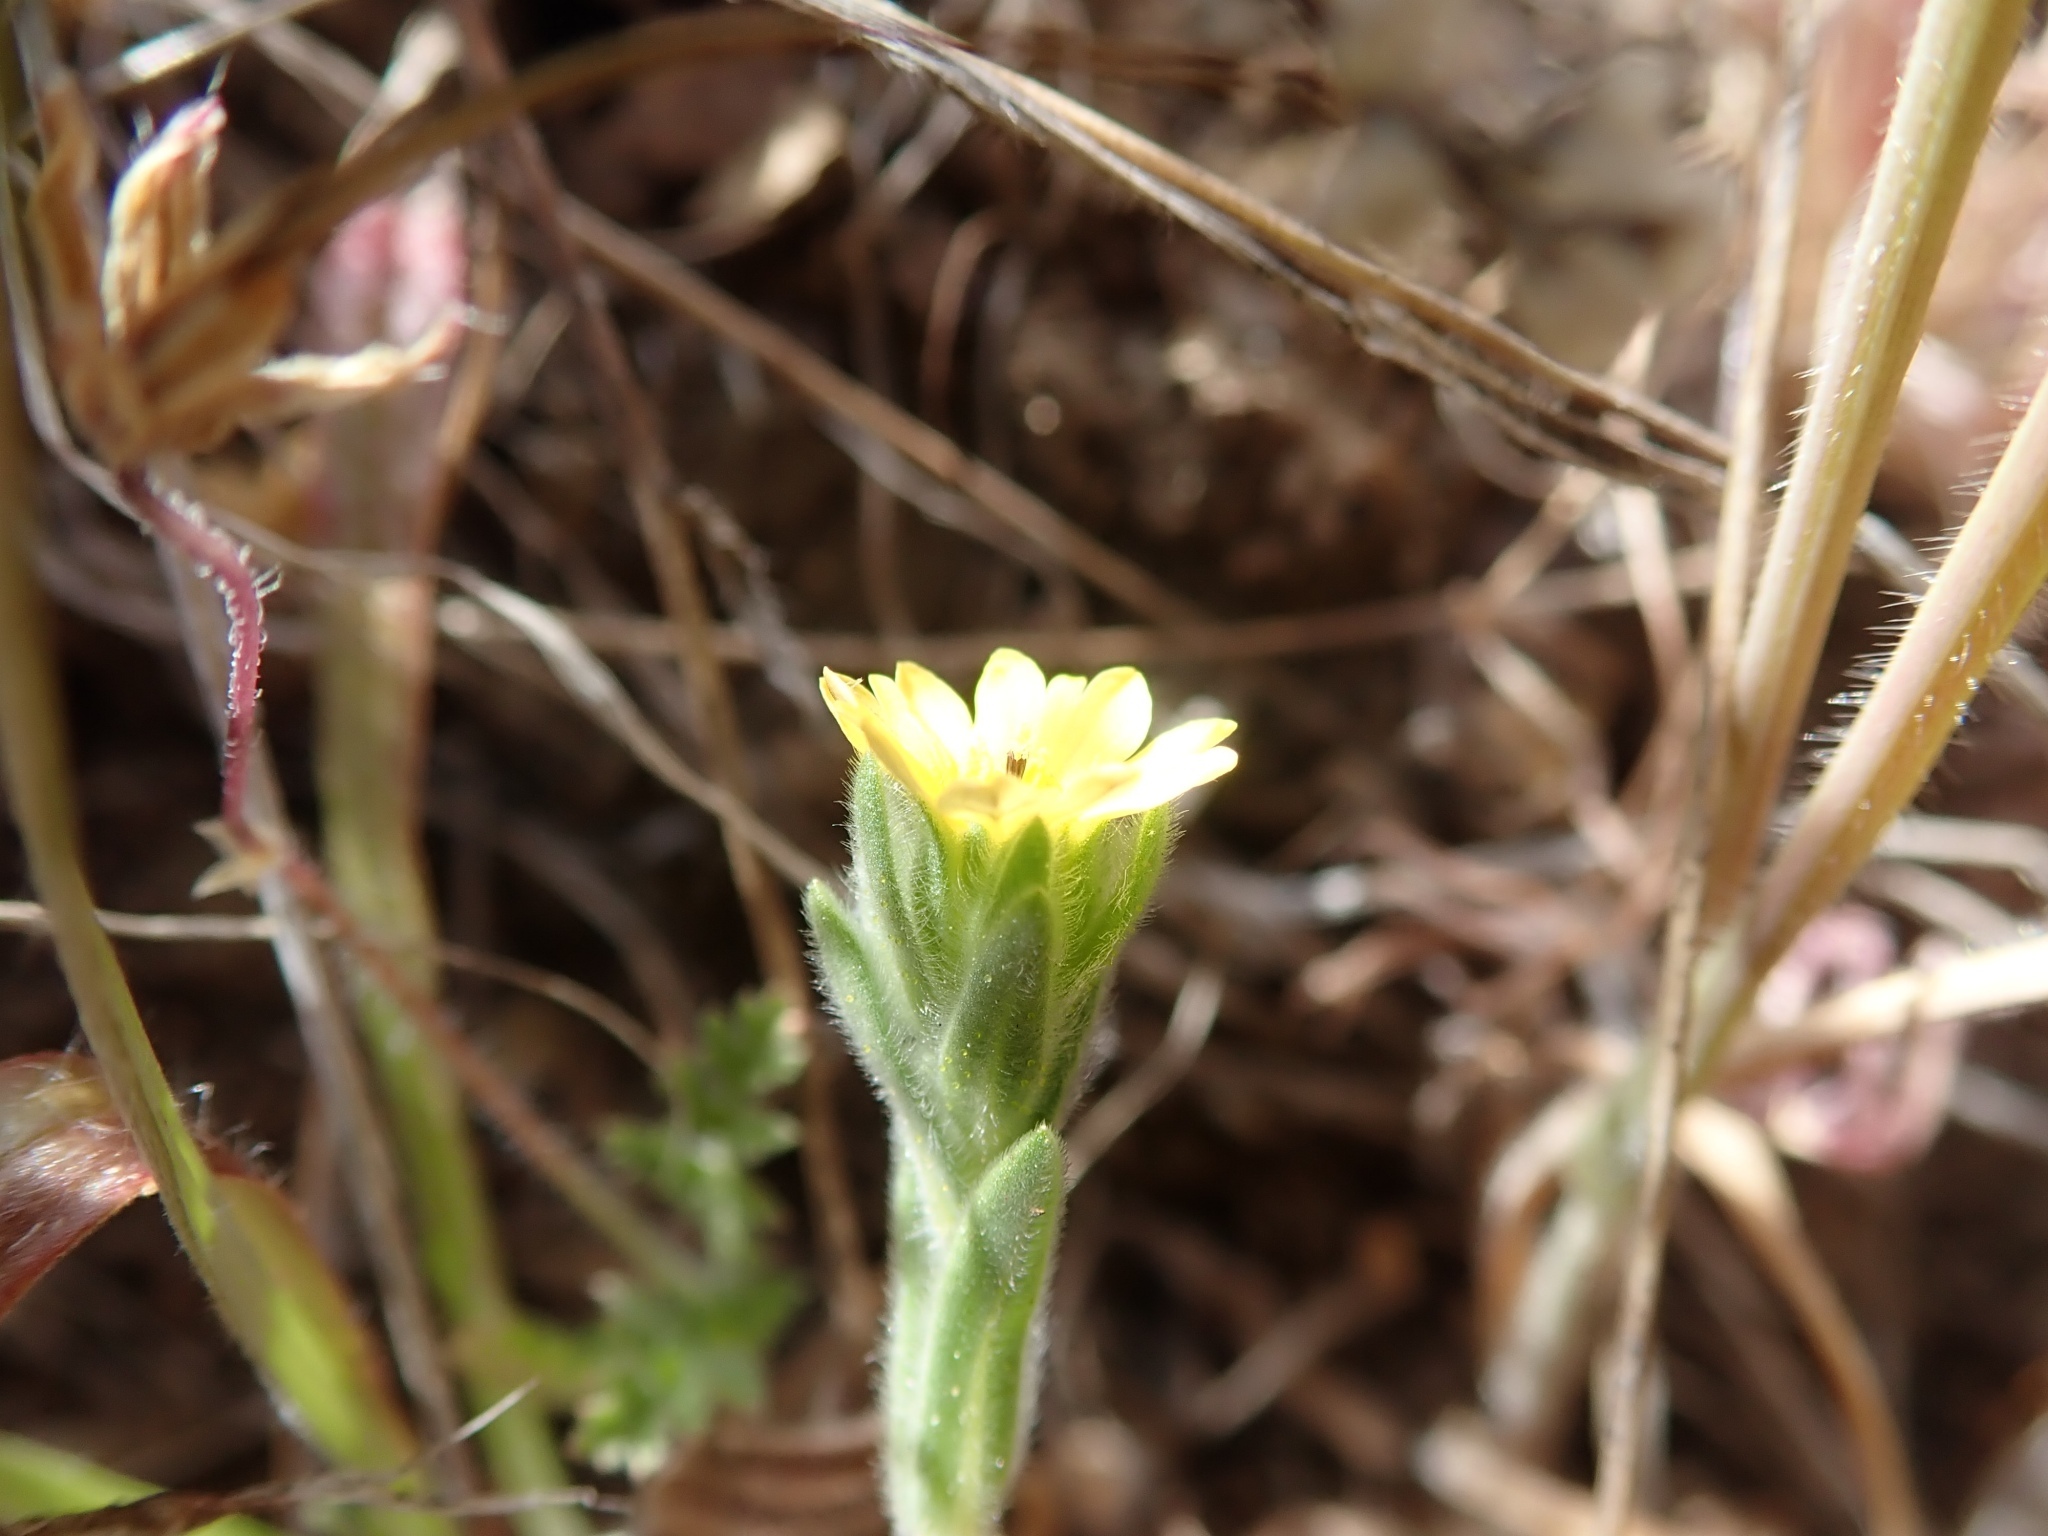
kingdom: Plantae
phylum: Tracheophyta
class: Magnoliopsida
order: Asterales
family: Asteraceae
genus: Lagophylla
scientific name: Lagophylla ramosissima
